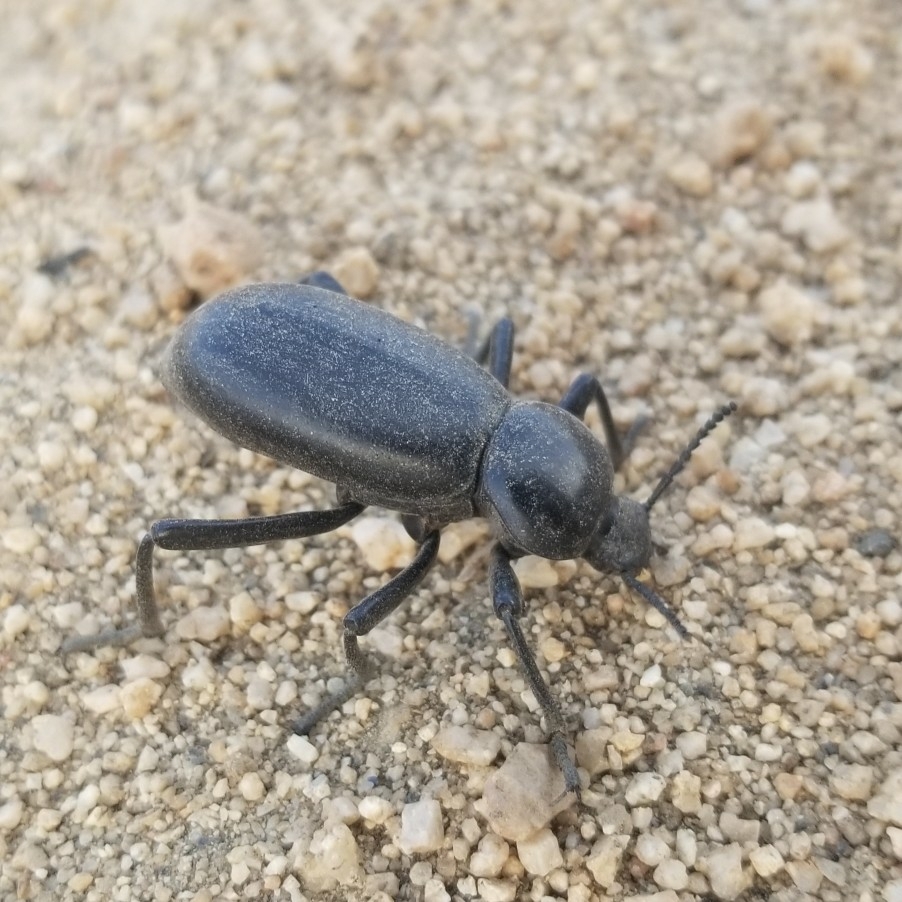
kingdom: Animalia
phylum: Arthropoda
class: Insecta
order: Coleoptera
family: Tenebrionidae
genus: Eleodes
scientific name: Eleodes grandicollis
